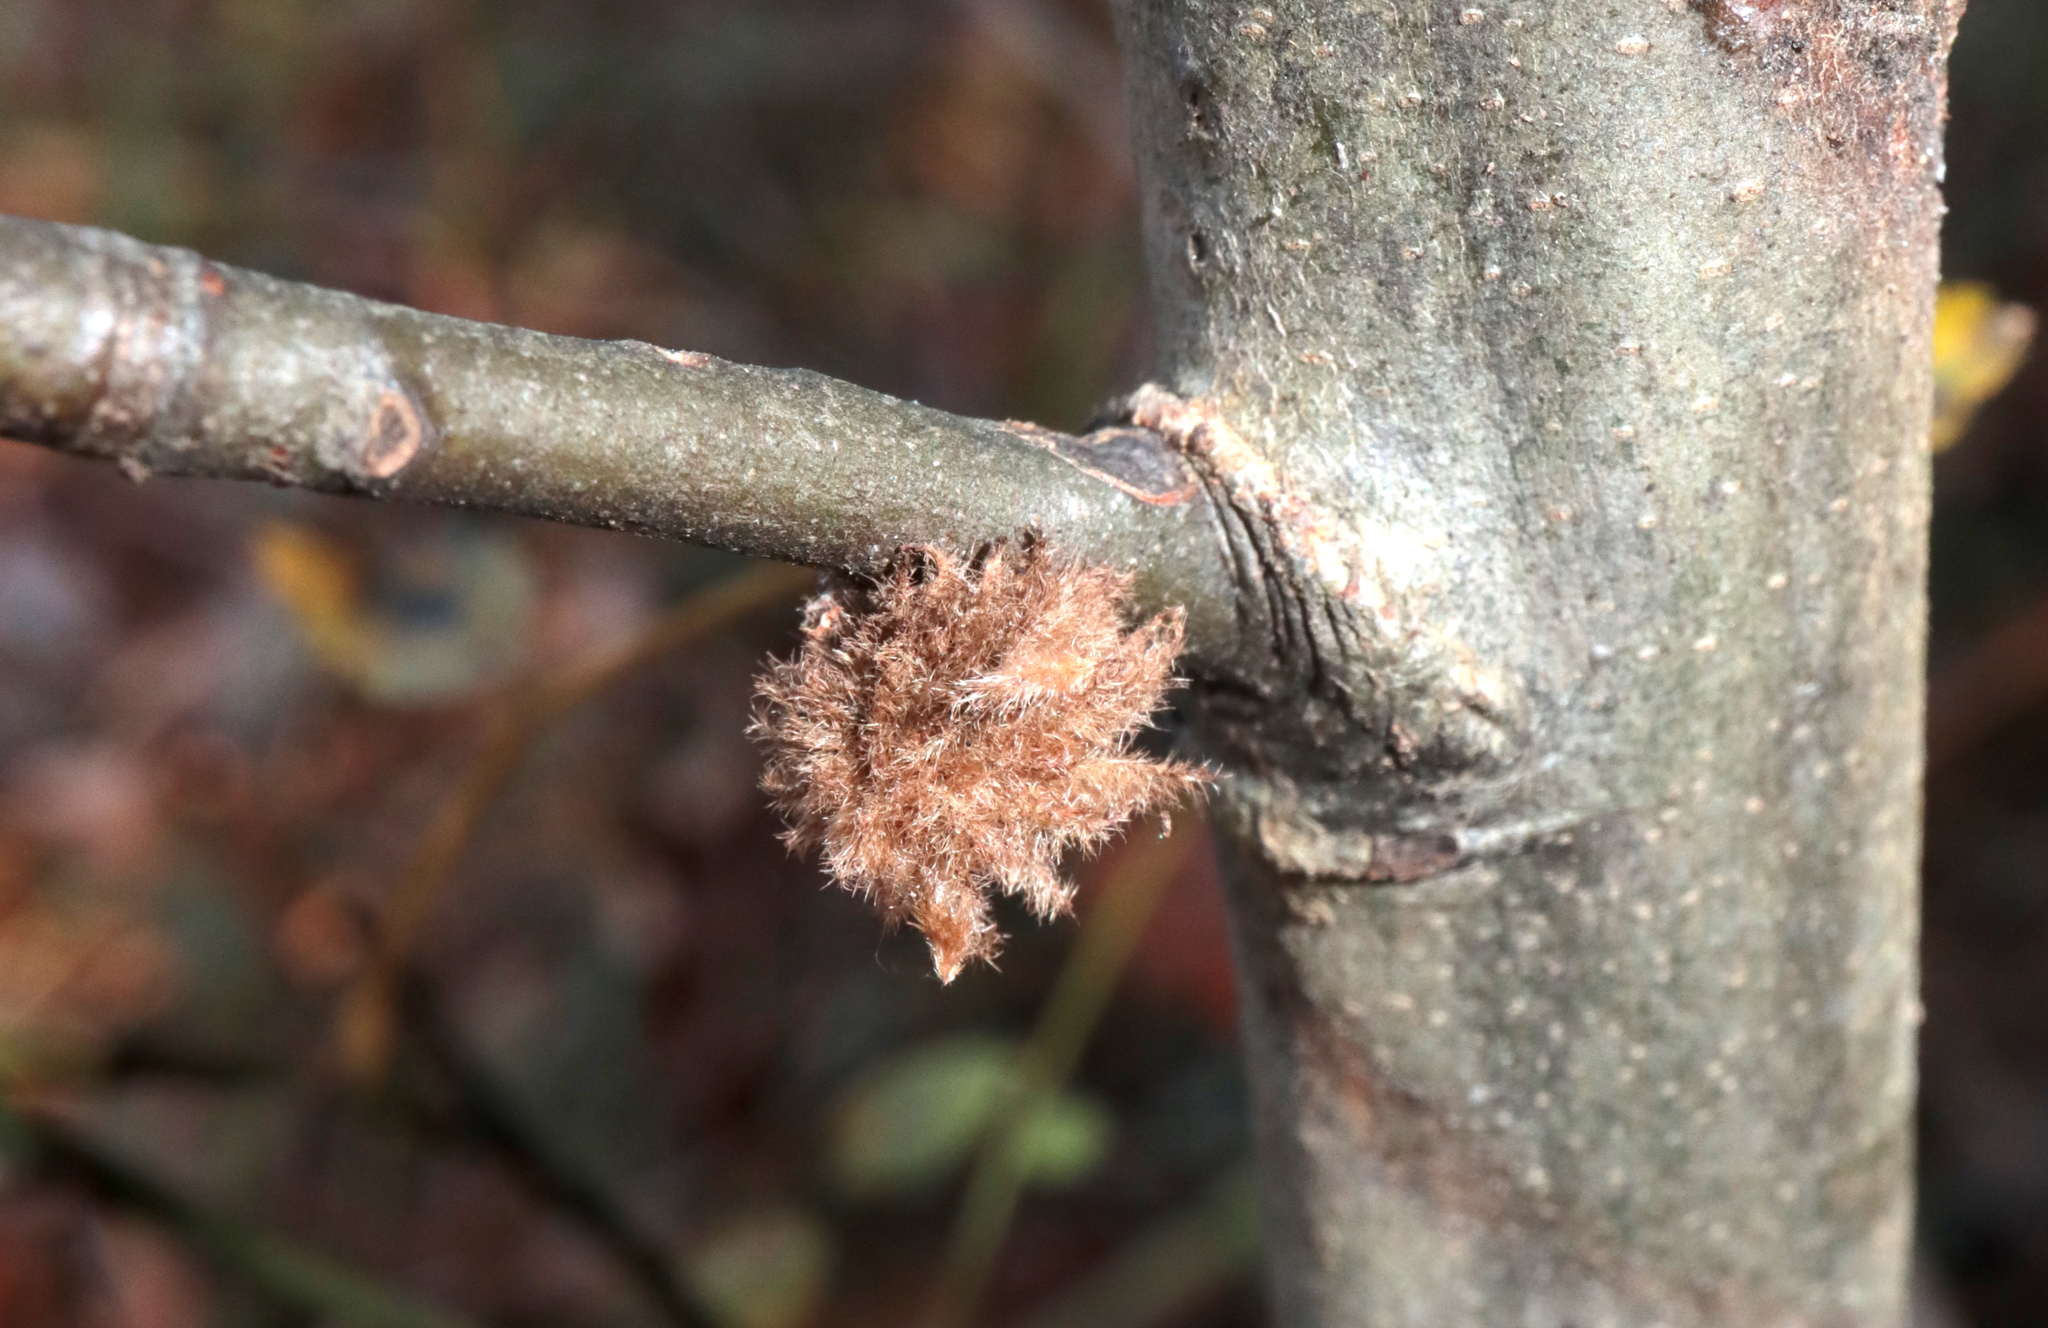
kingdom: Animalia
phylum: Arthropoda
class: Insecta
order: Hymenoptera
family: Cynipidae
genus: Dryocosmus
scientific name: Dryocosmus
